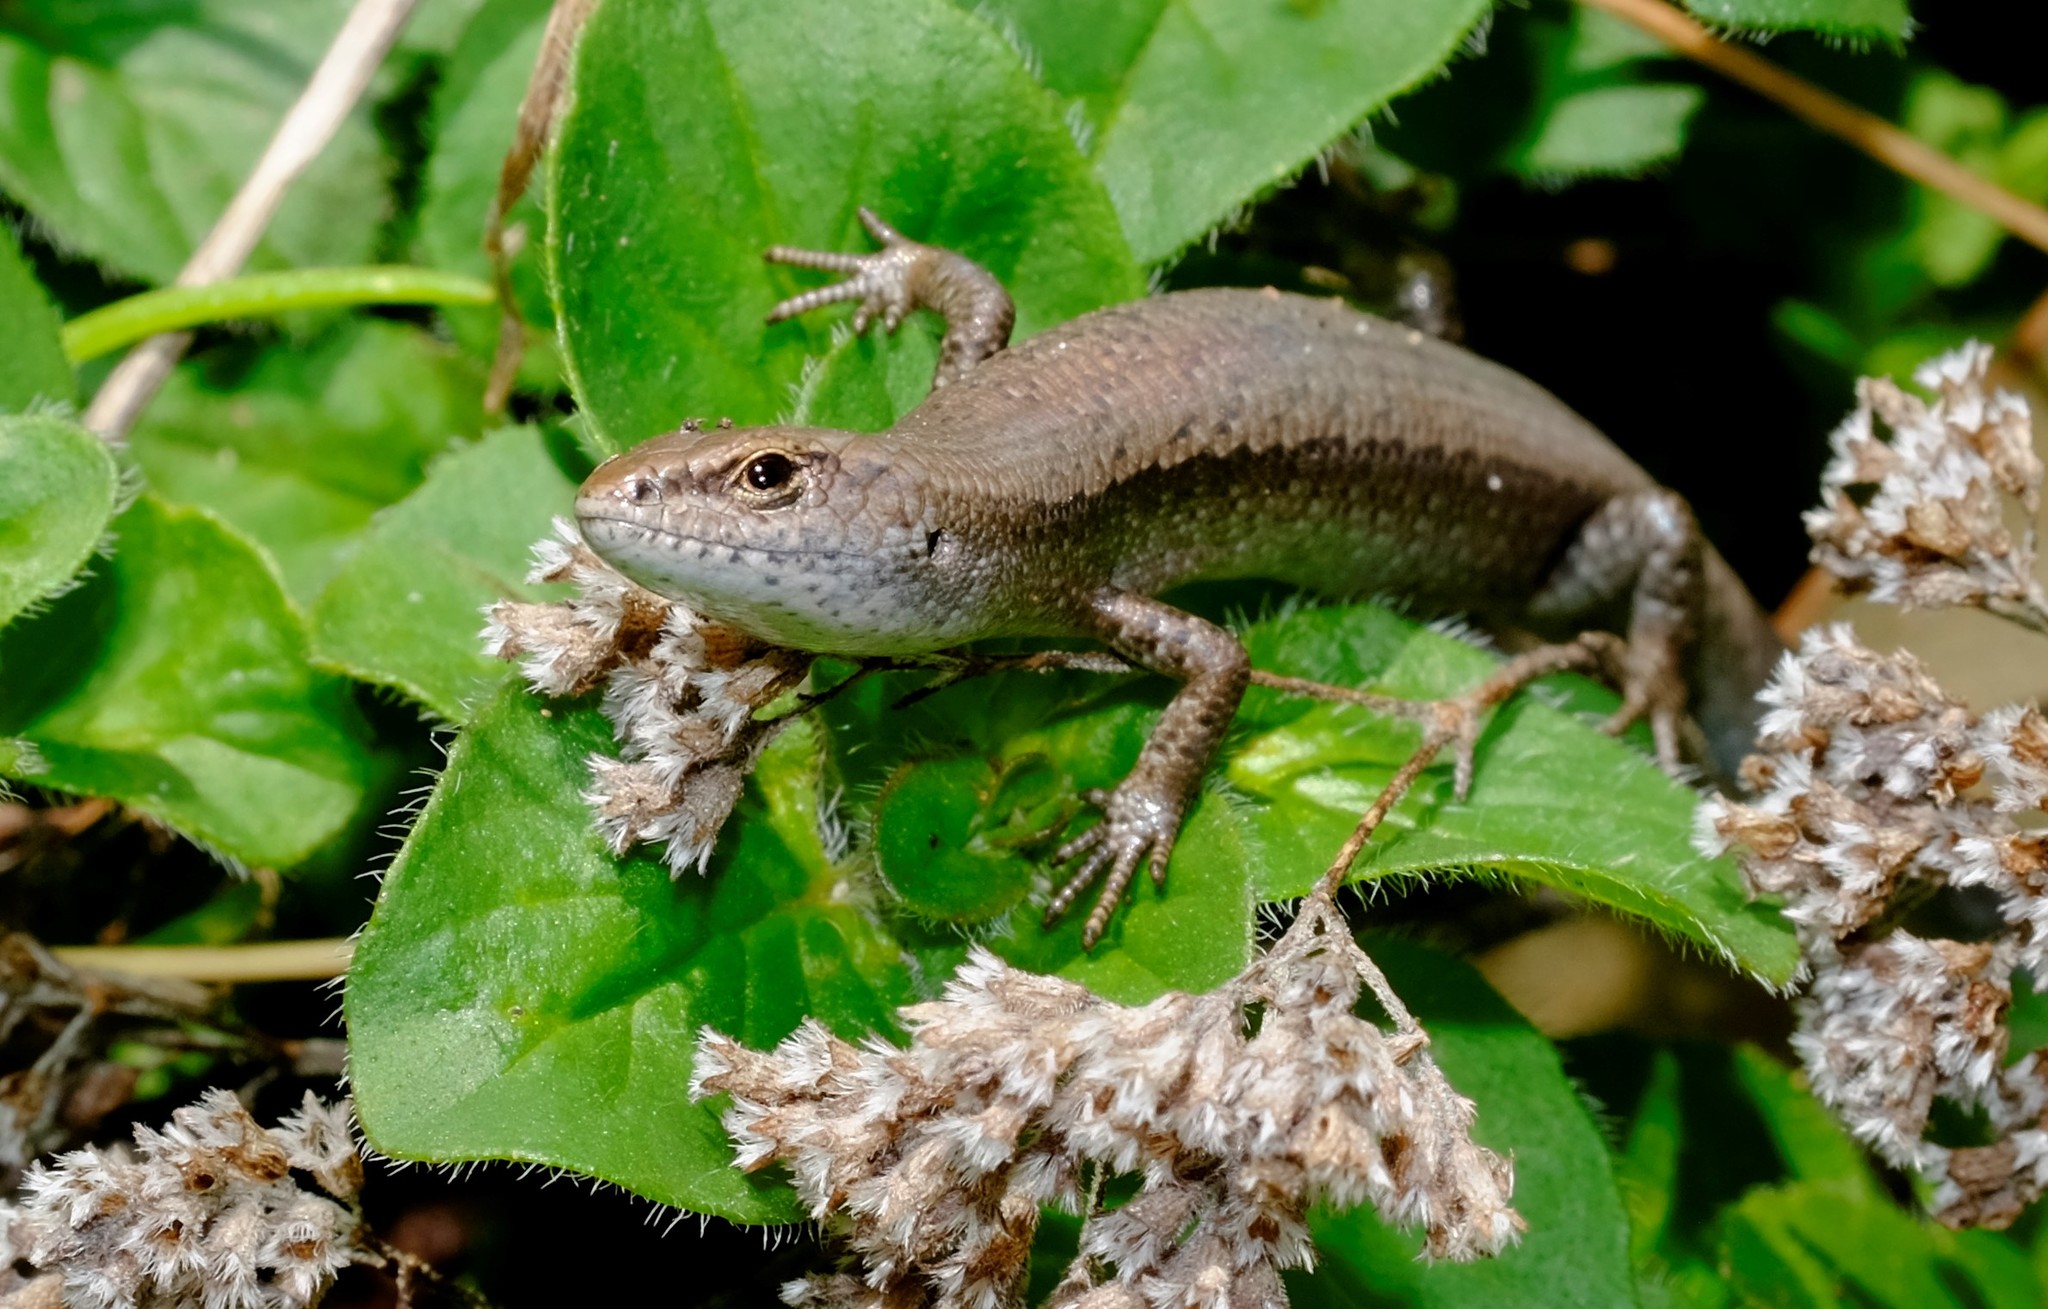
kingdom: Animalia
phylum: Chordata
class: Squamata
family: Scincidae
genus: Lampropholis
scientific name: Lampropholis guichenoti
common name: Garden skink
